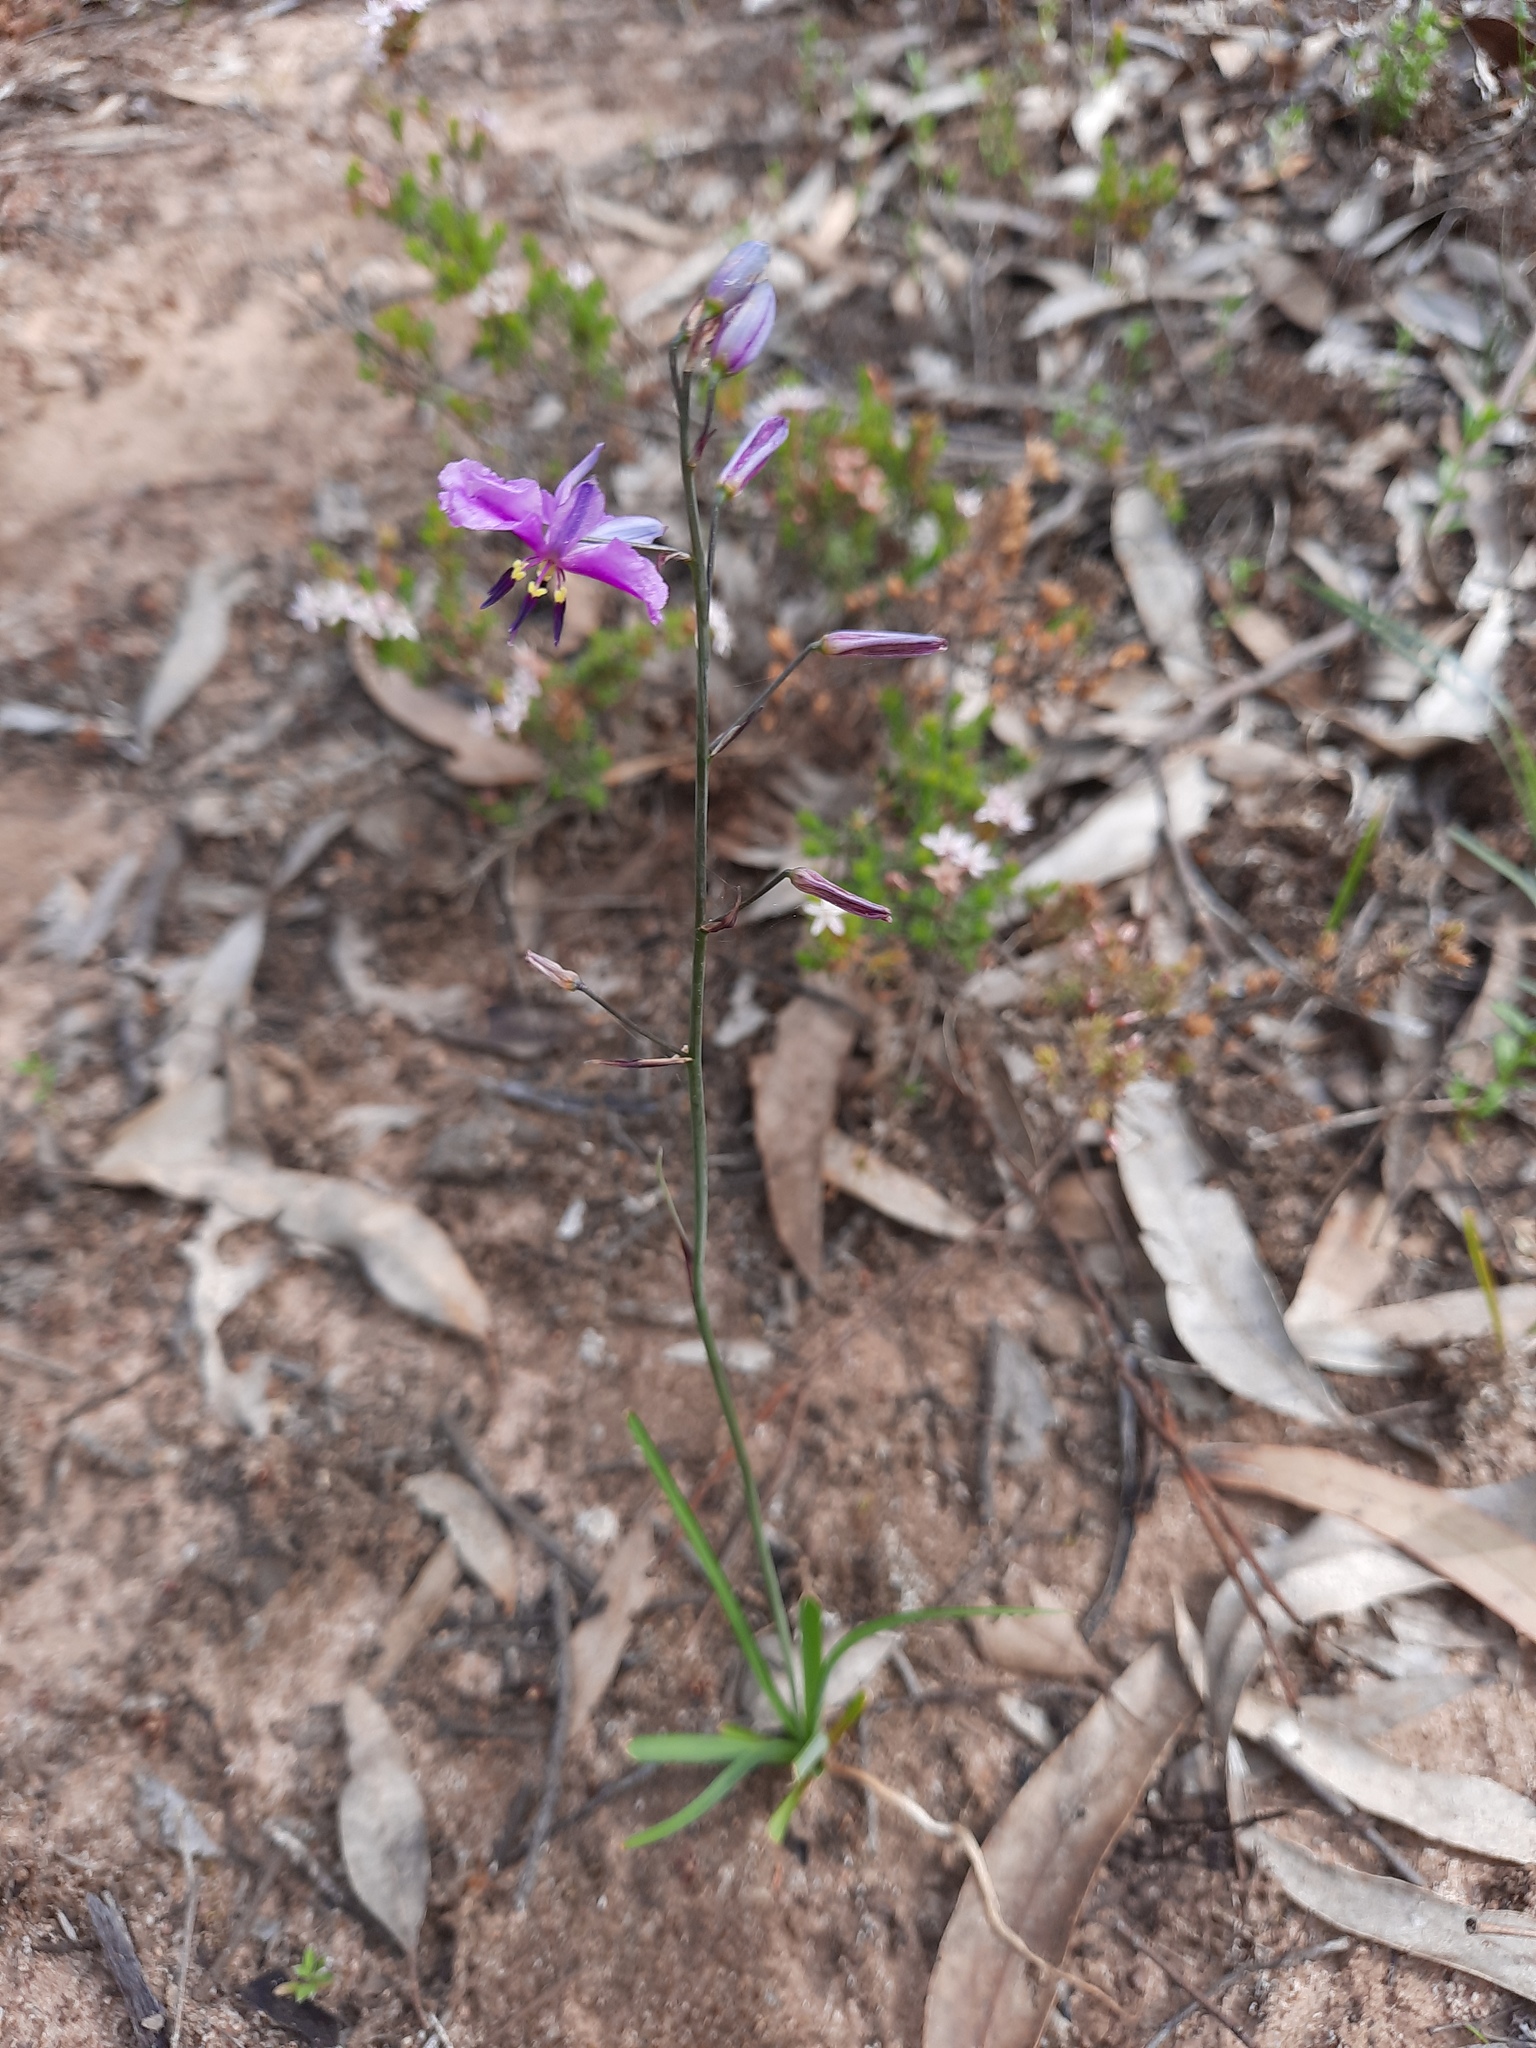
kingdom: Plantae
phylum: Tracheophyta
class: Liliopsida
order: Asparagales
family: Asparagaceae
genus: Arthropodium
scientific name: Arthropodium strictum
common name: Chocolate-lily
